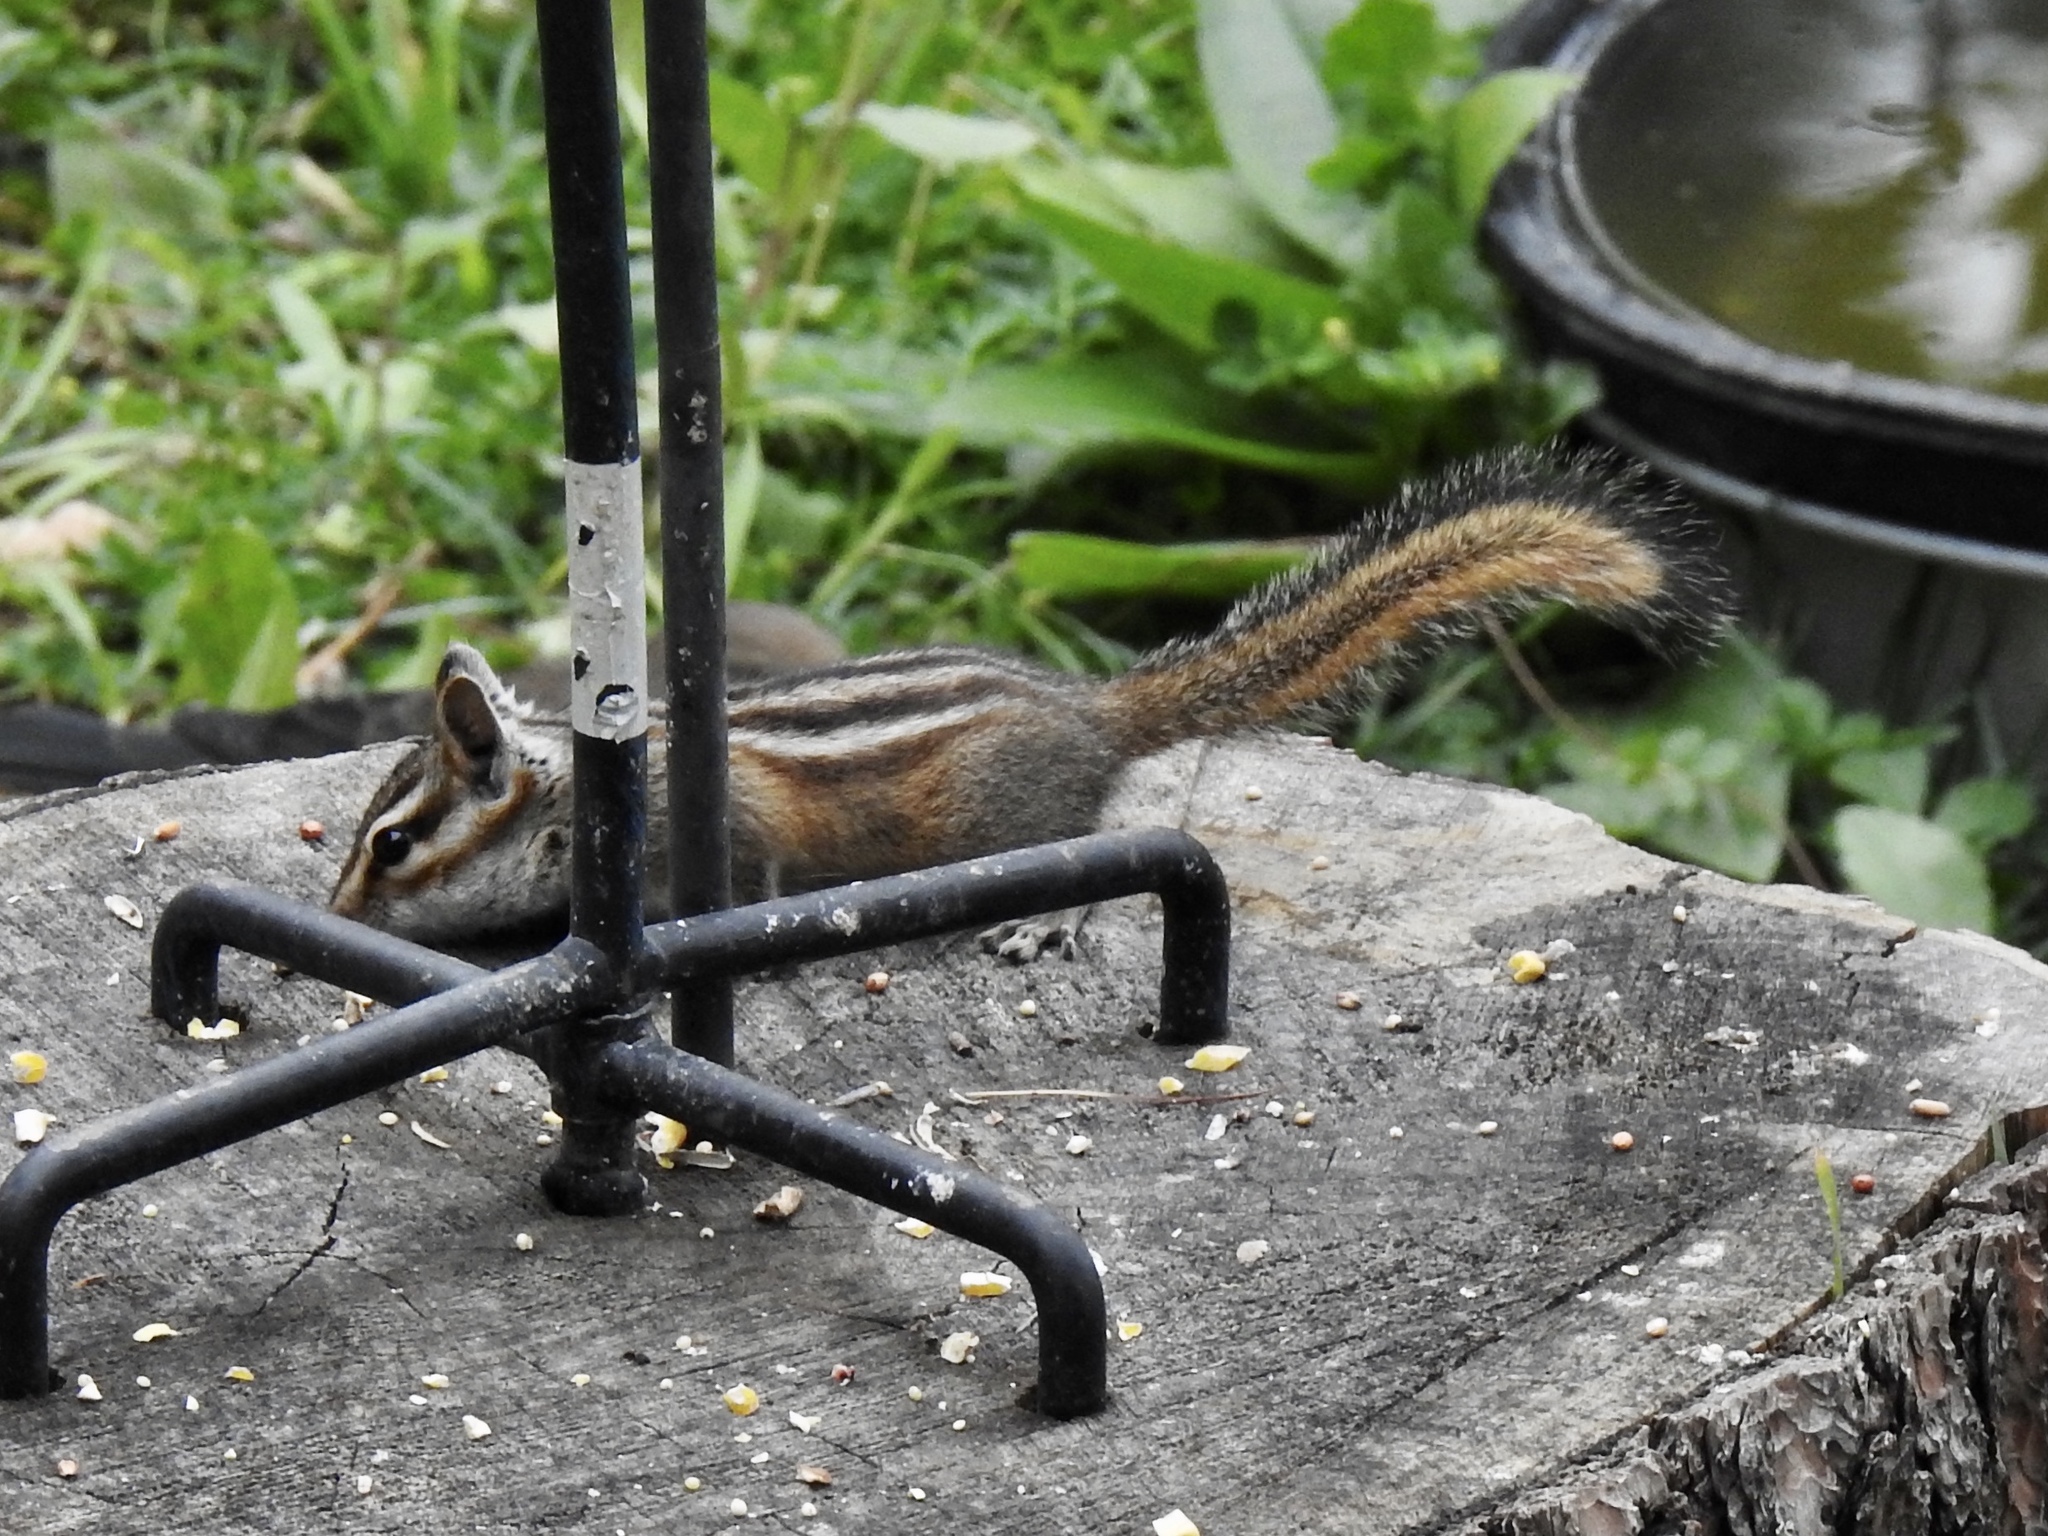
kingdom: Animalia
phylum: Chordata
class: Mammalia
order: Rodentia
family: Sciuridae
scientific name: Sciuridae
